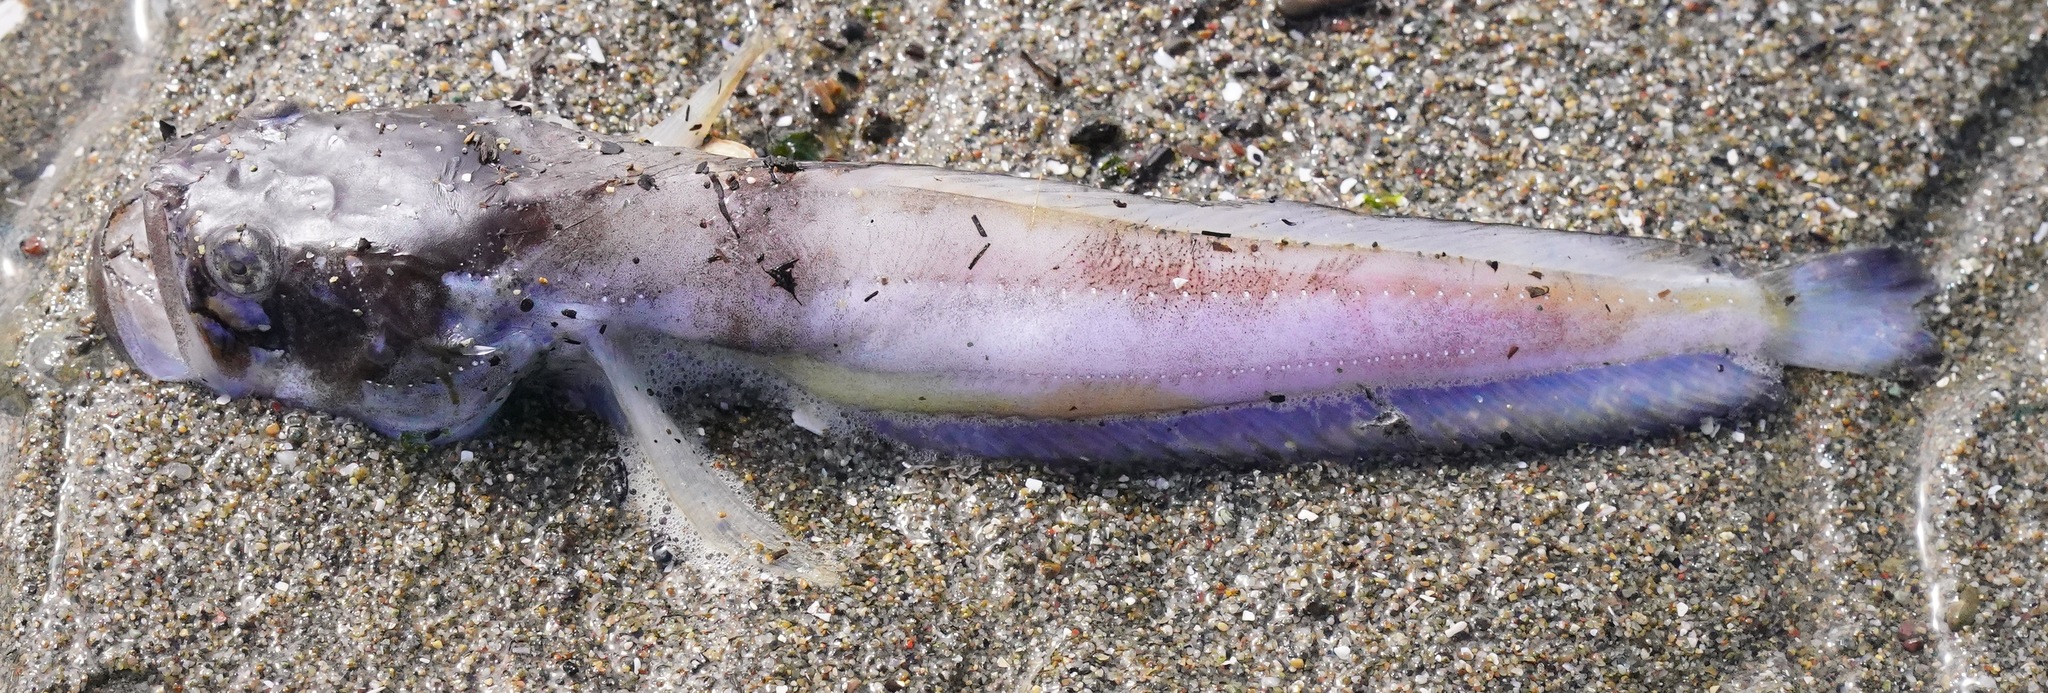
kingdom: Animalia
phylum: Chordata
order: Batrachoidiformes
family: Batrachoididae
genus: Porichthys
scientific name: Porichthys notatus
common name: Plainfin midshipman
